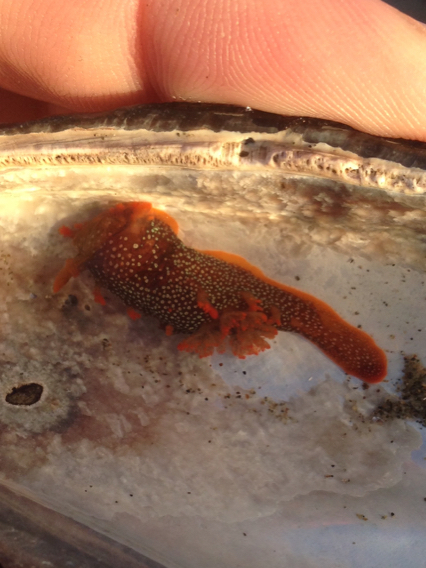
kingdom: Animalia
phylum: Mollusca
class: Gastropoda
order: Nudibranchia
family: Polyceridae
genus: Triopha
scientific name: Triopha maculata
